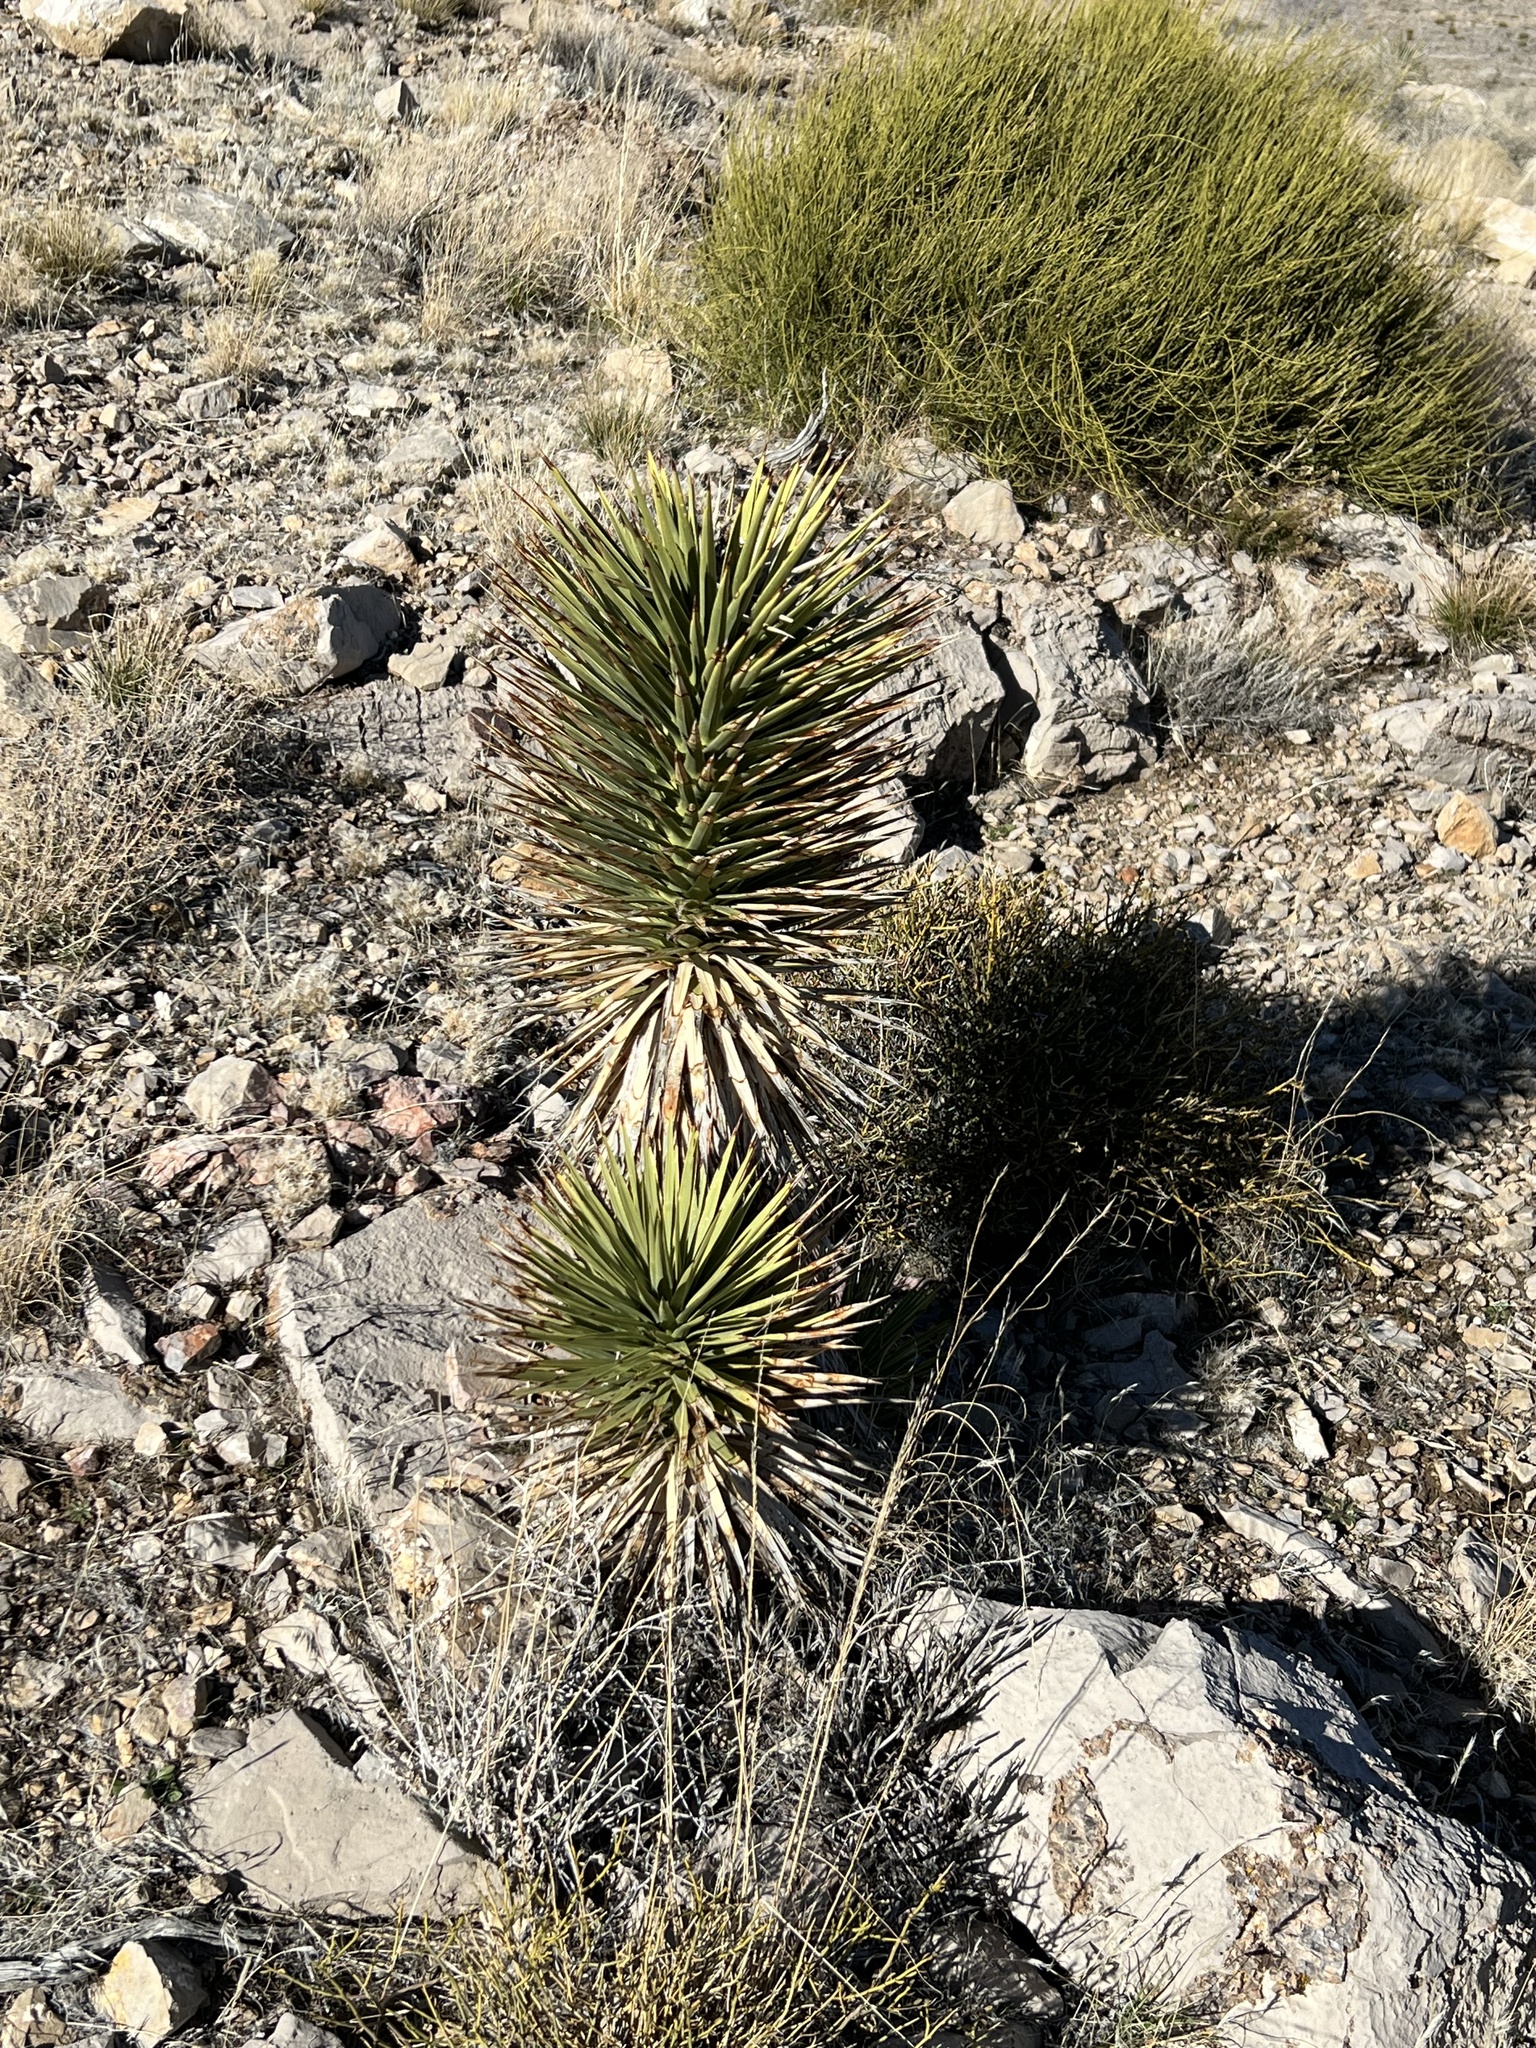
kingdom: Plantae
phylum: Tracheophyta
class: Liliopsida
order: Asparagales
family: Asparagaceae
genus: Yucca
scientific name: Yucca brevifolia
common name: Joshua tree
